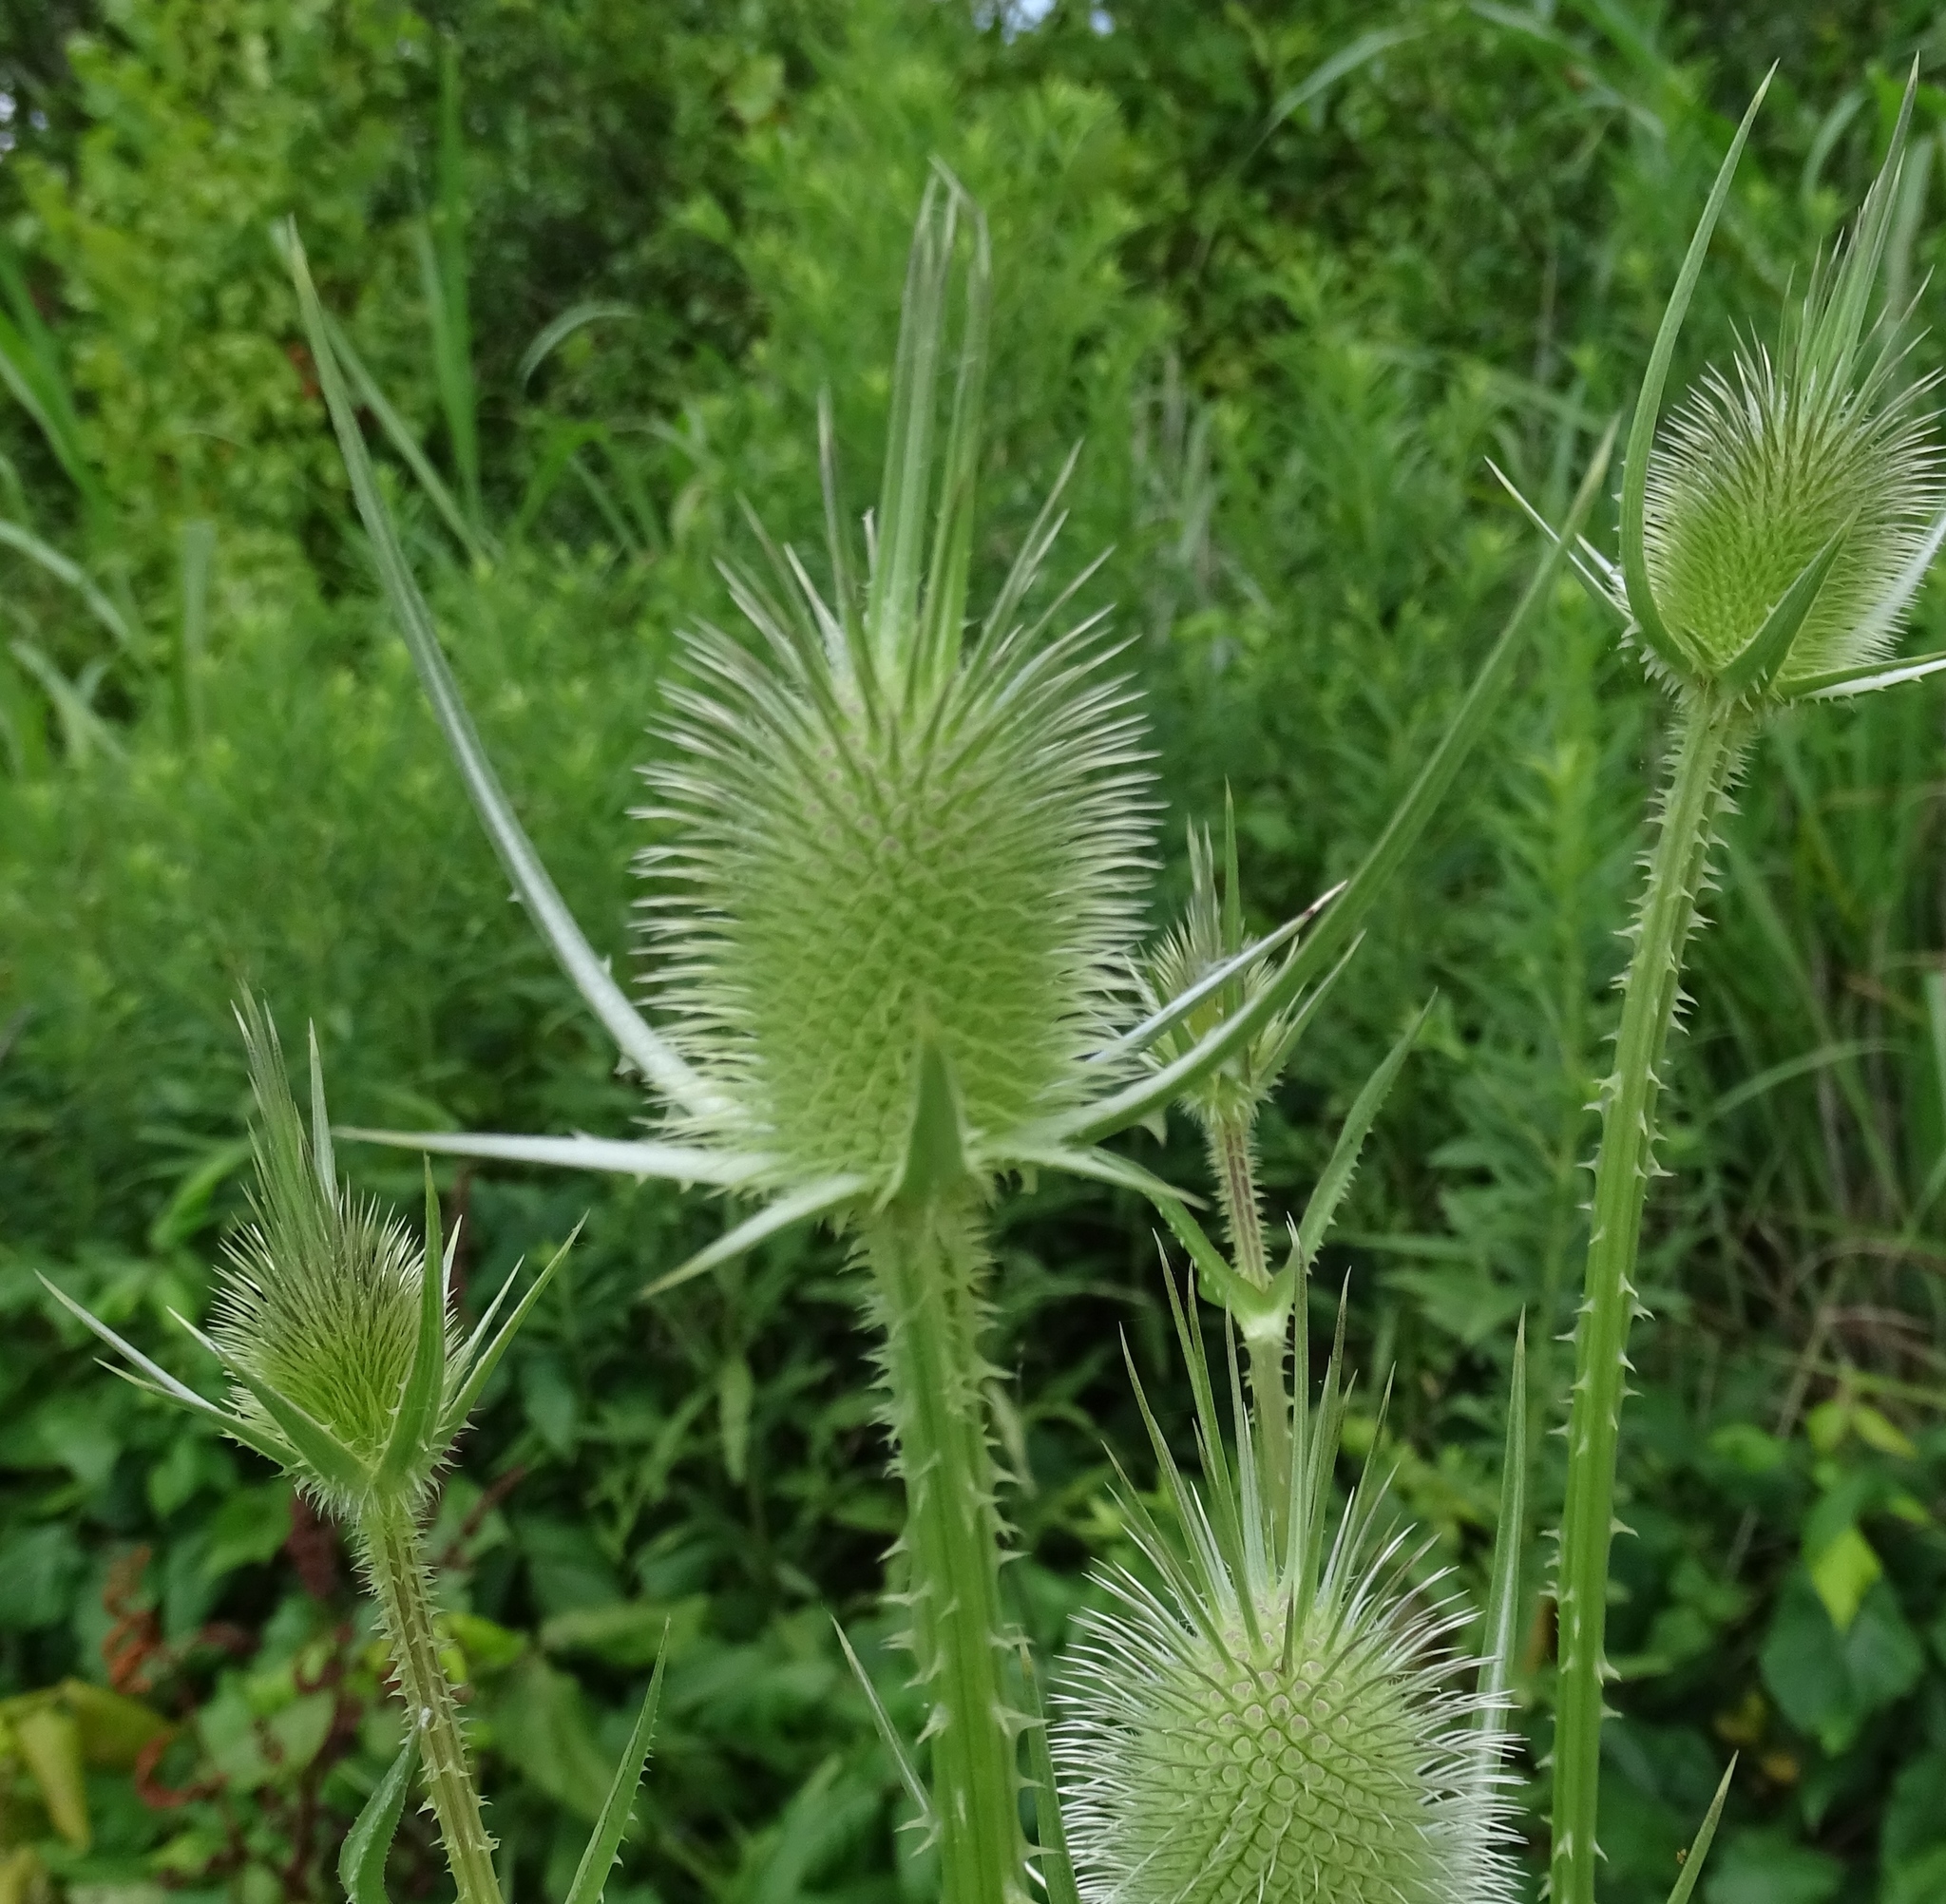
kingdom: Plantae
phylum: Tracheophyta
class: Magnoliopsida
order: Dipsacales
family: Caprifoliaceae
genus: Dipsacus
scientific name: Dipsacus laciniatus
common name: Cut-leaved teasel
